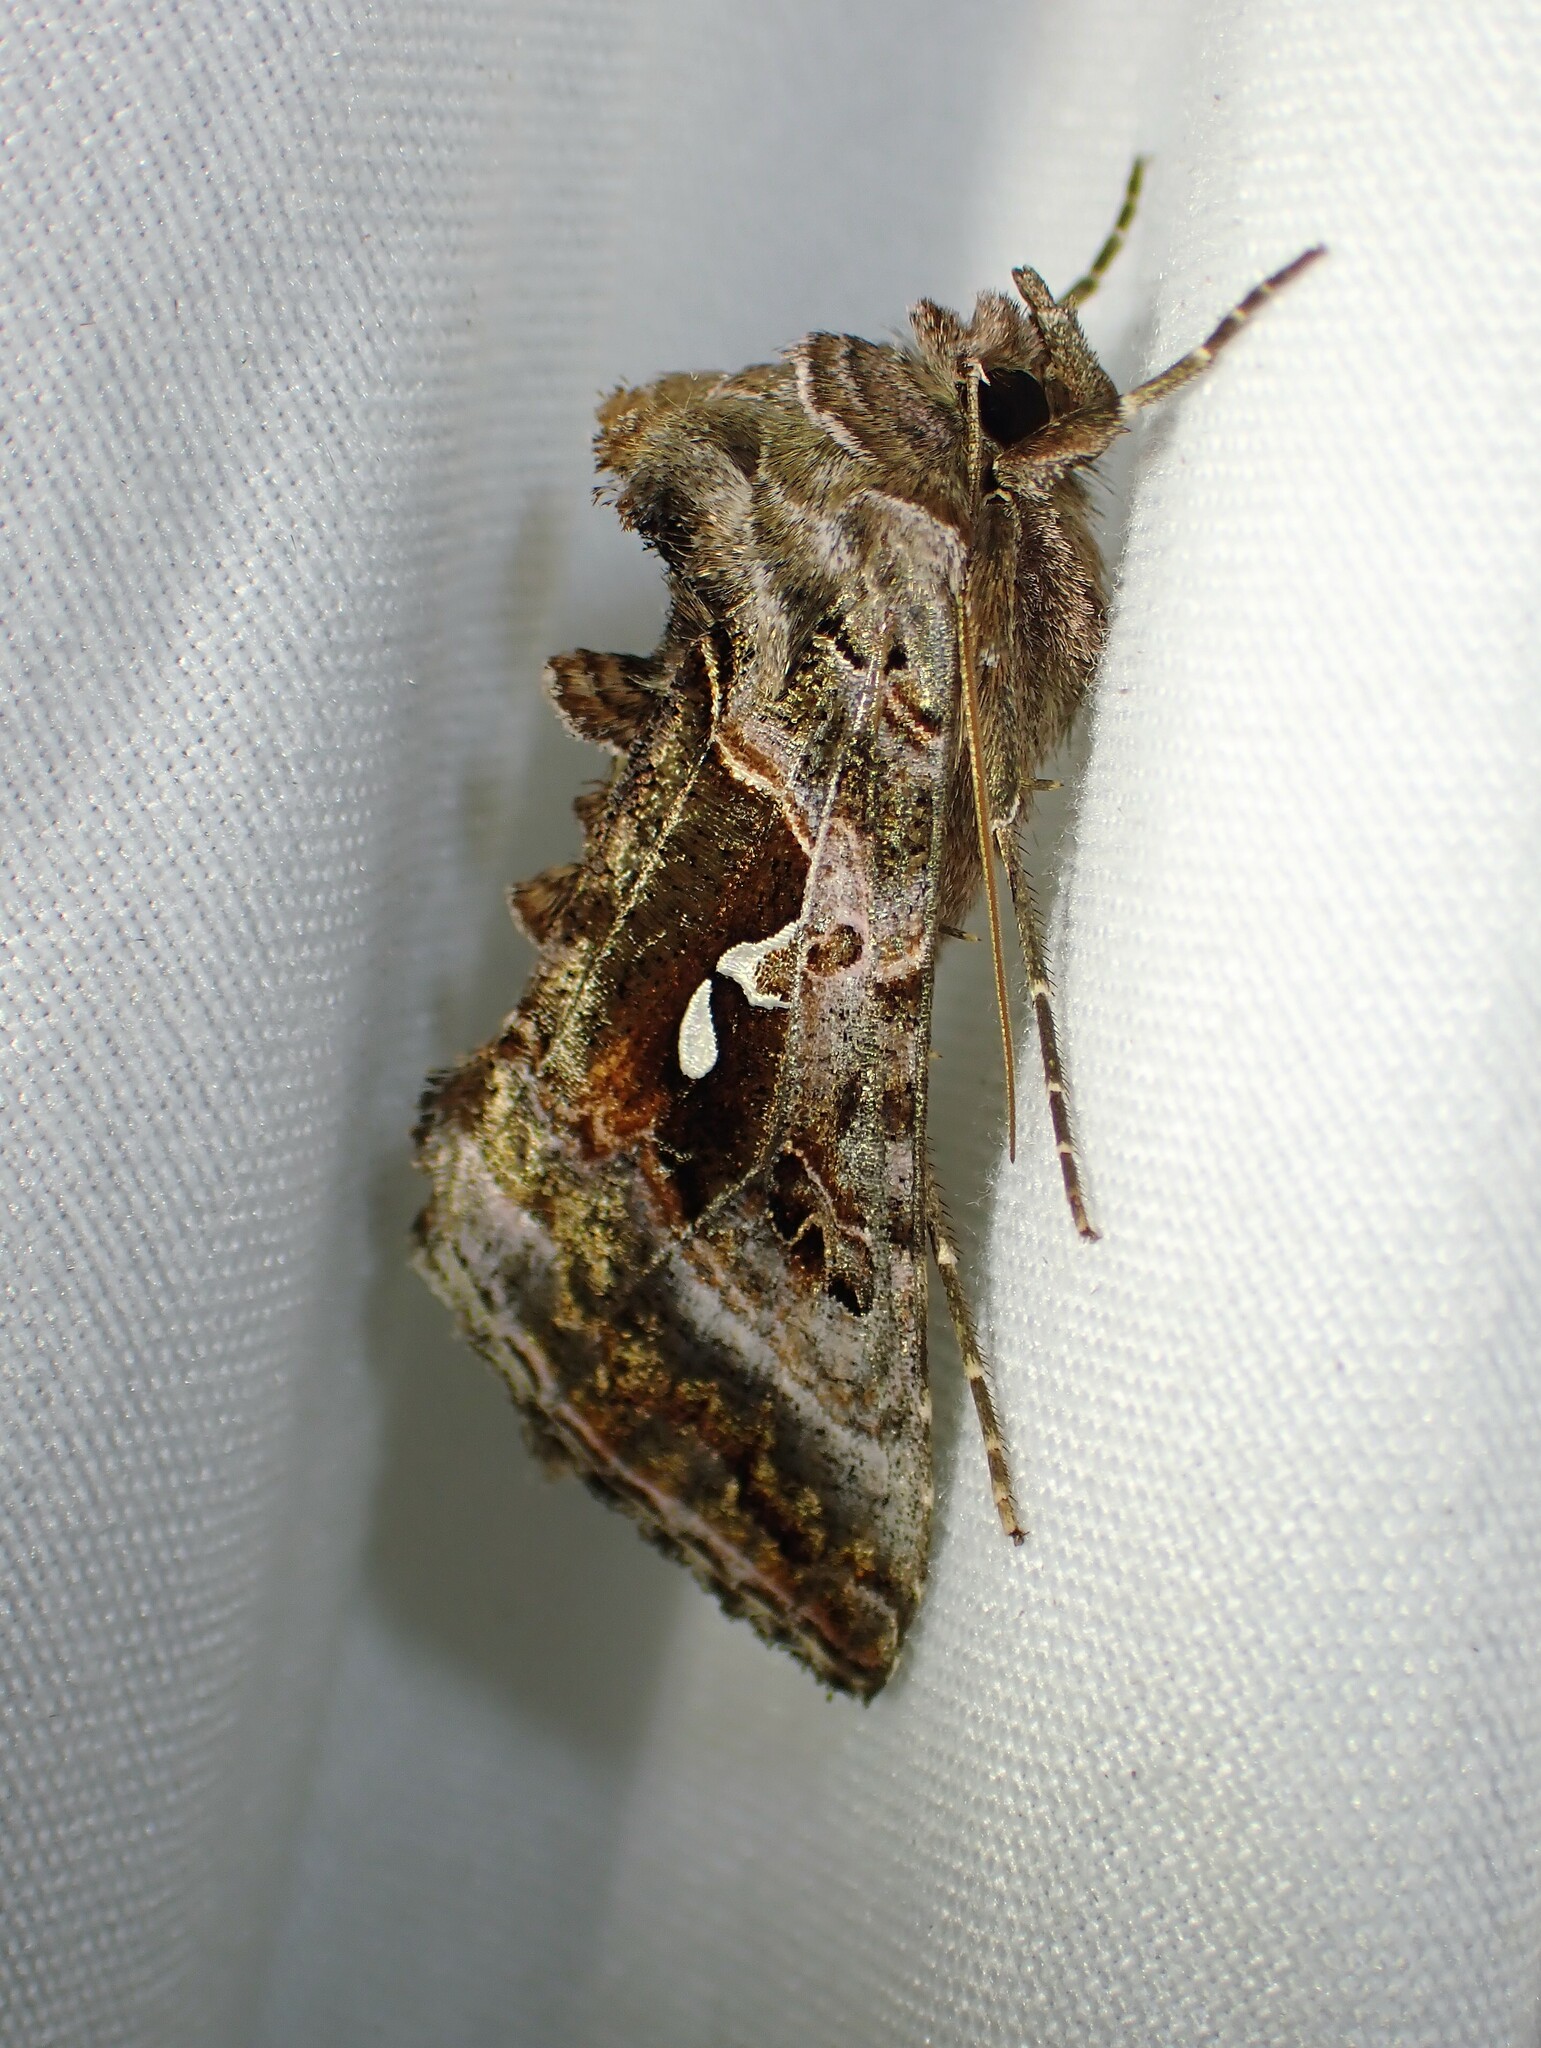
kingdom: Animalia
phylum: Arthropoda
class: Insecta
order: Lepidoptera
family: Noctuidae
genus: Autographa
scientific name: Autographa pseudogamma
